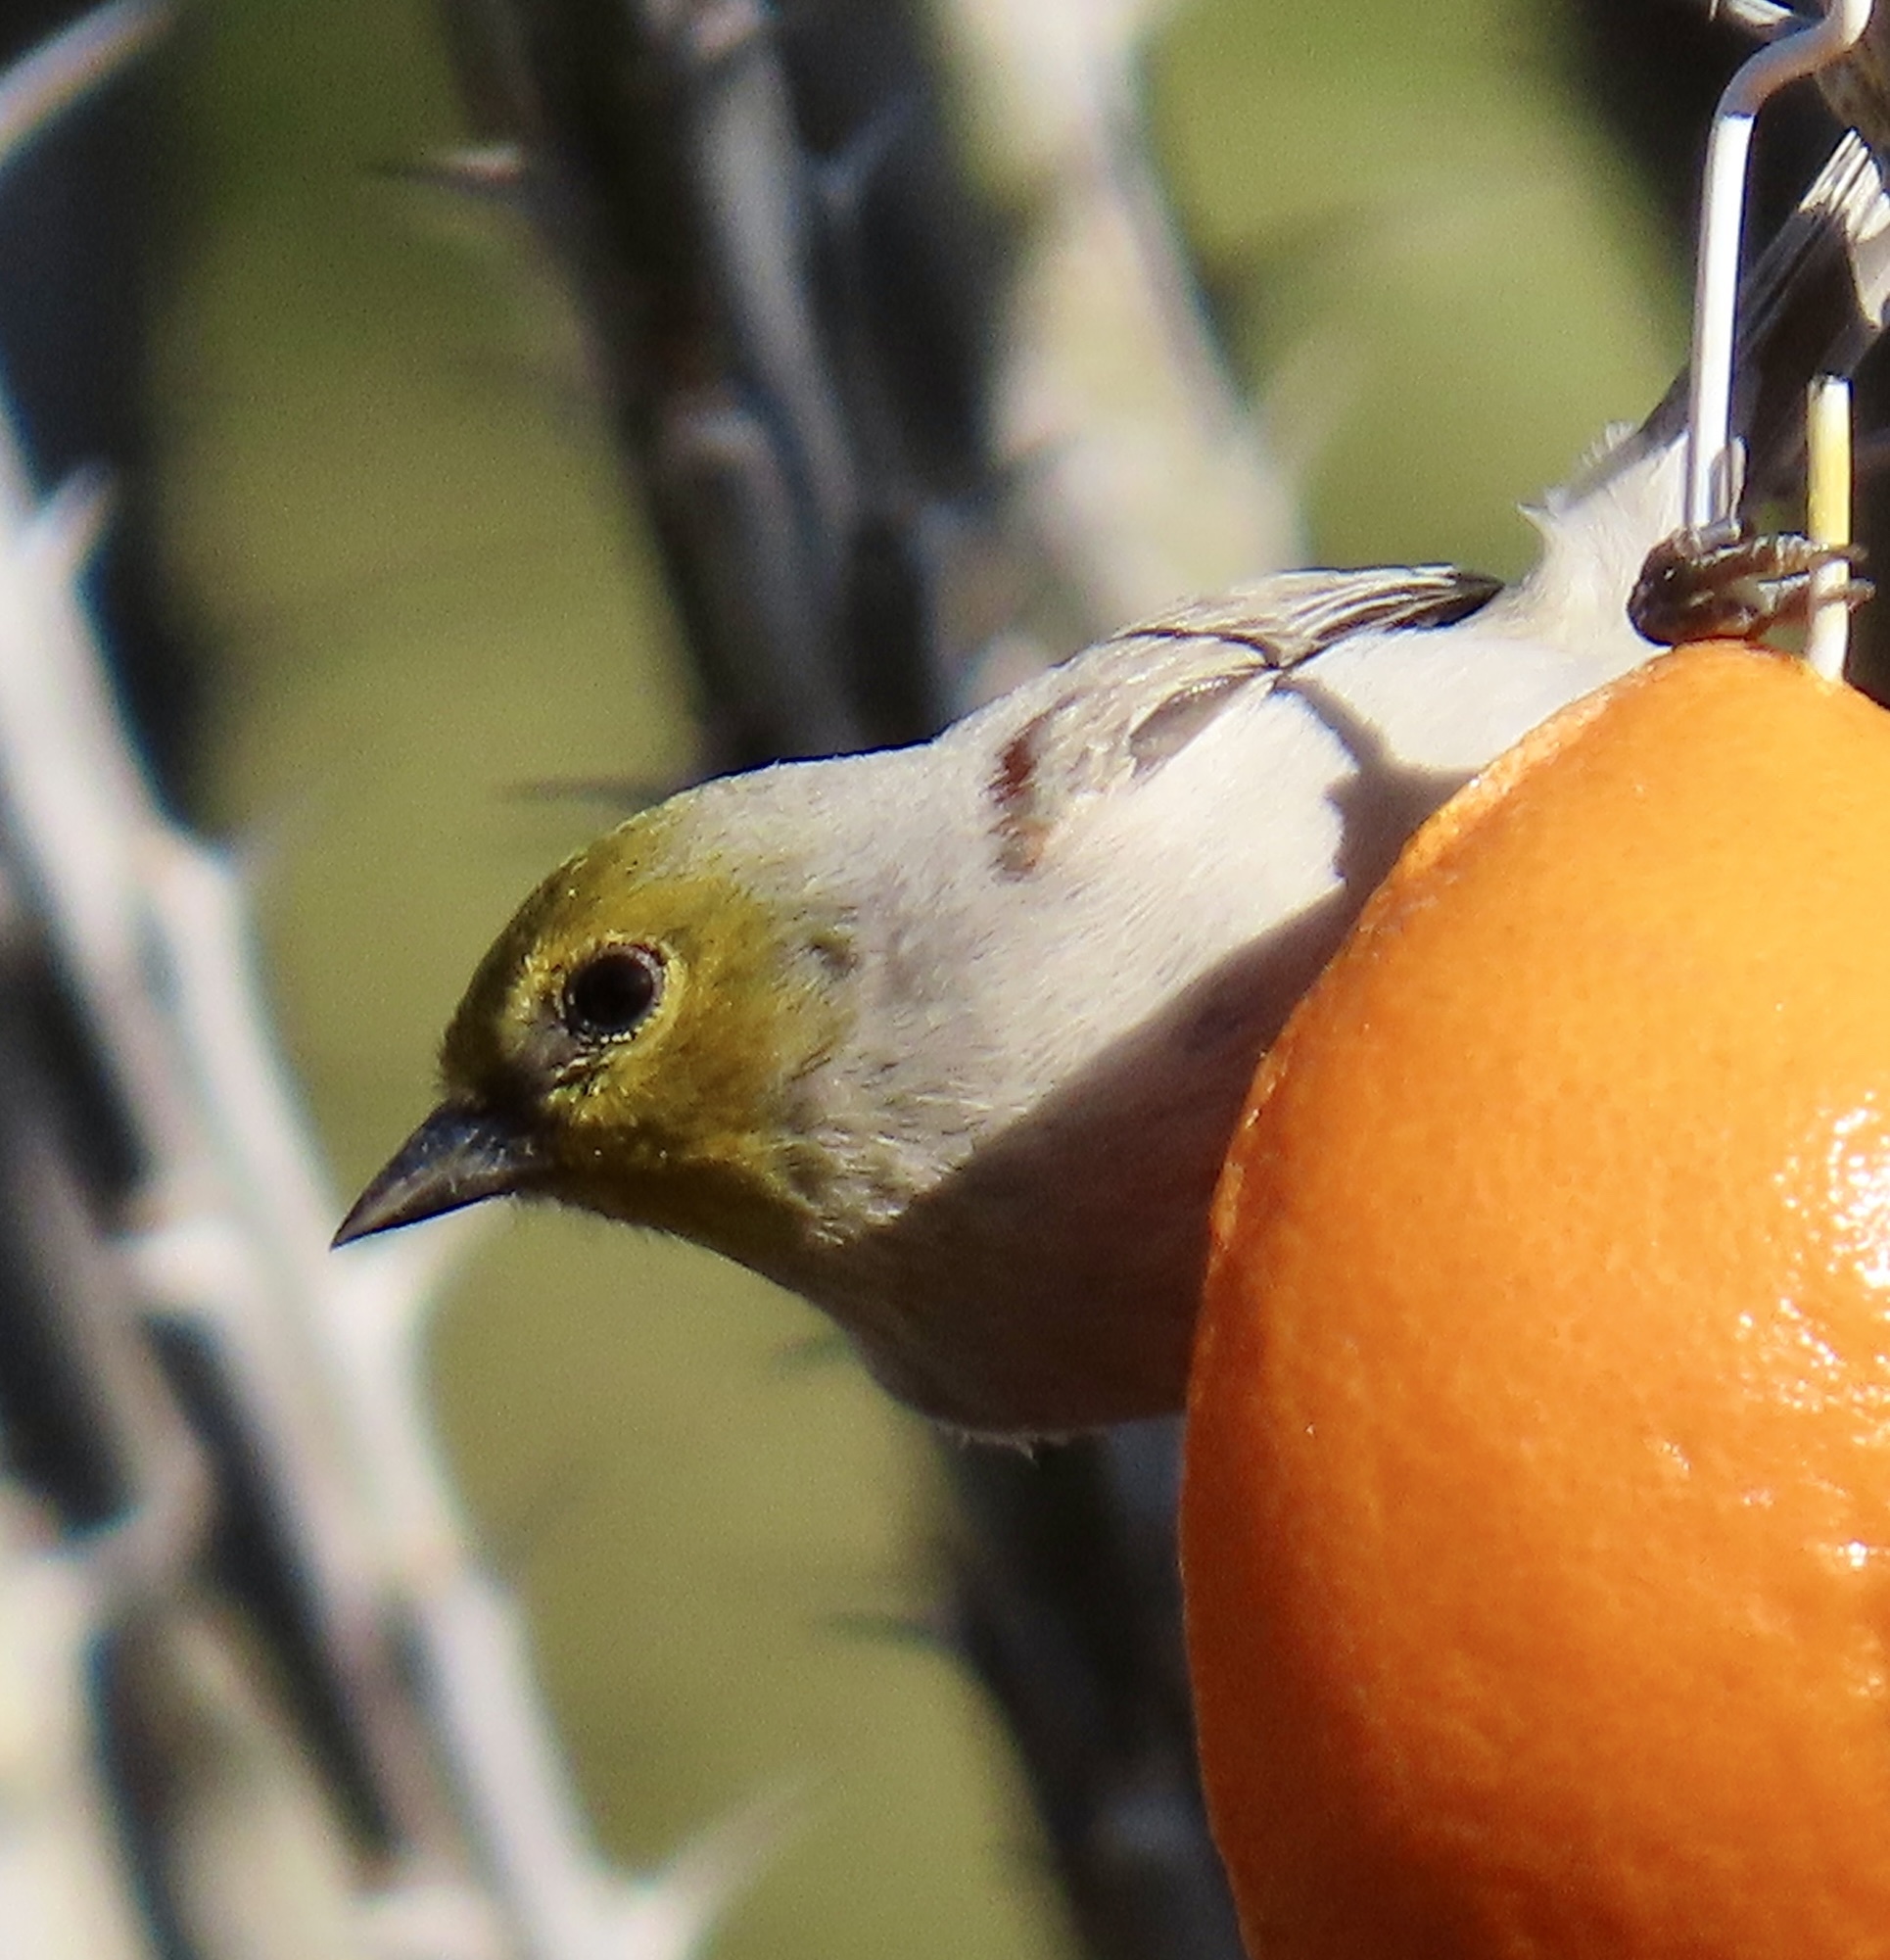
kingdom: Animalia
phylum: Chordata
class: Aves
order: Passeriformes
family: Remizidae
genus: Auriparus
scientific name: Auriparus flaviceps
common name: Verdin
